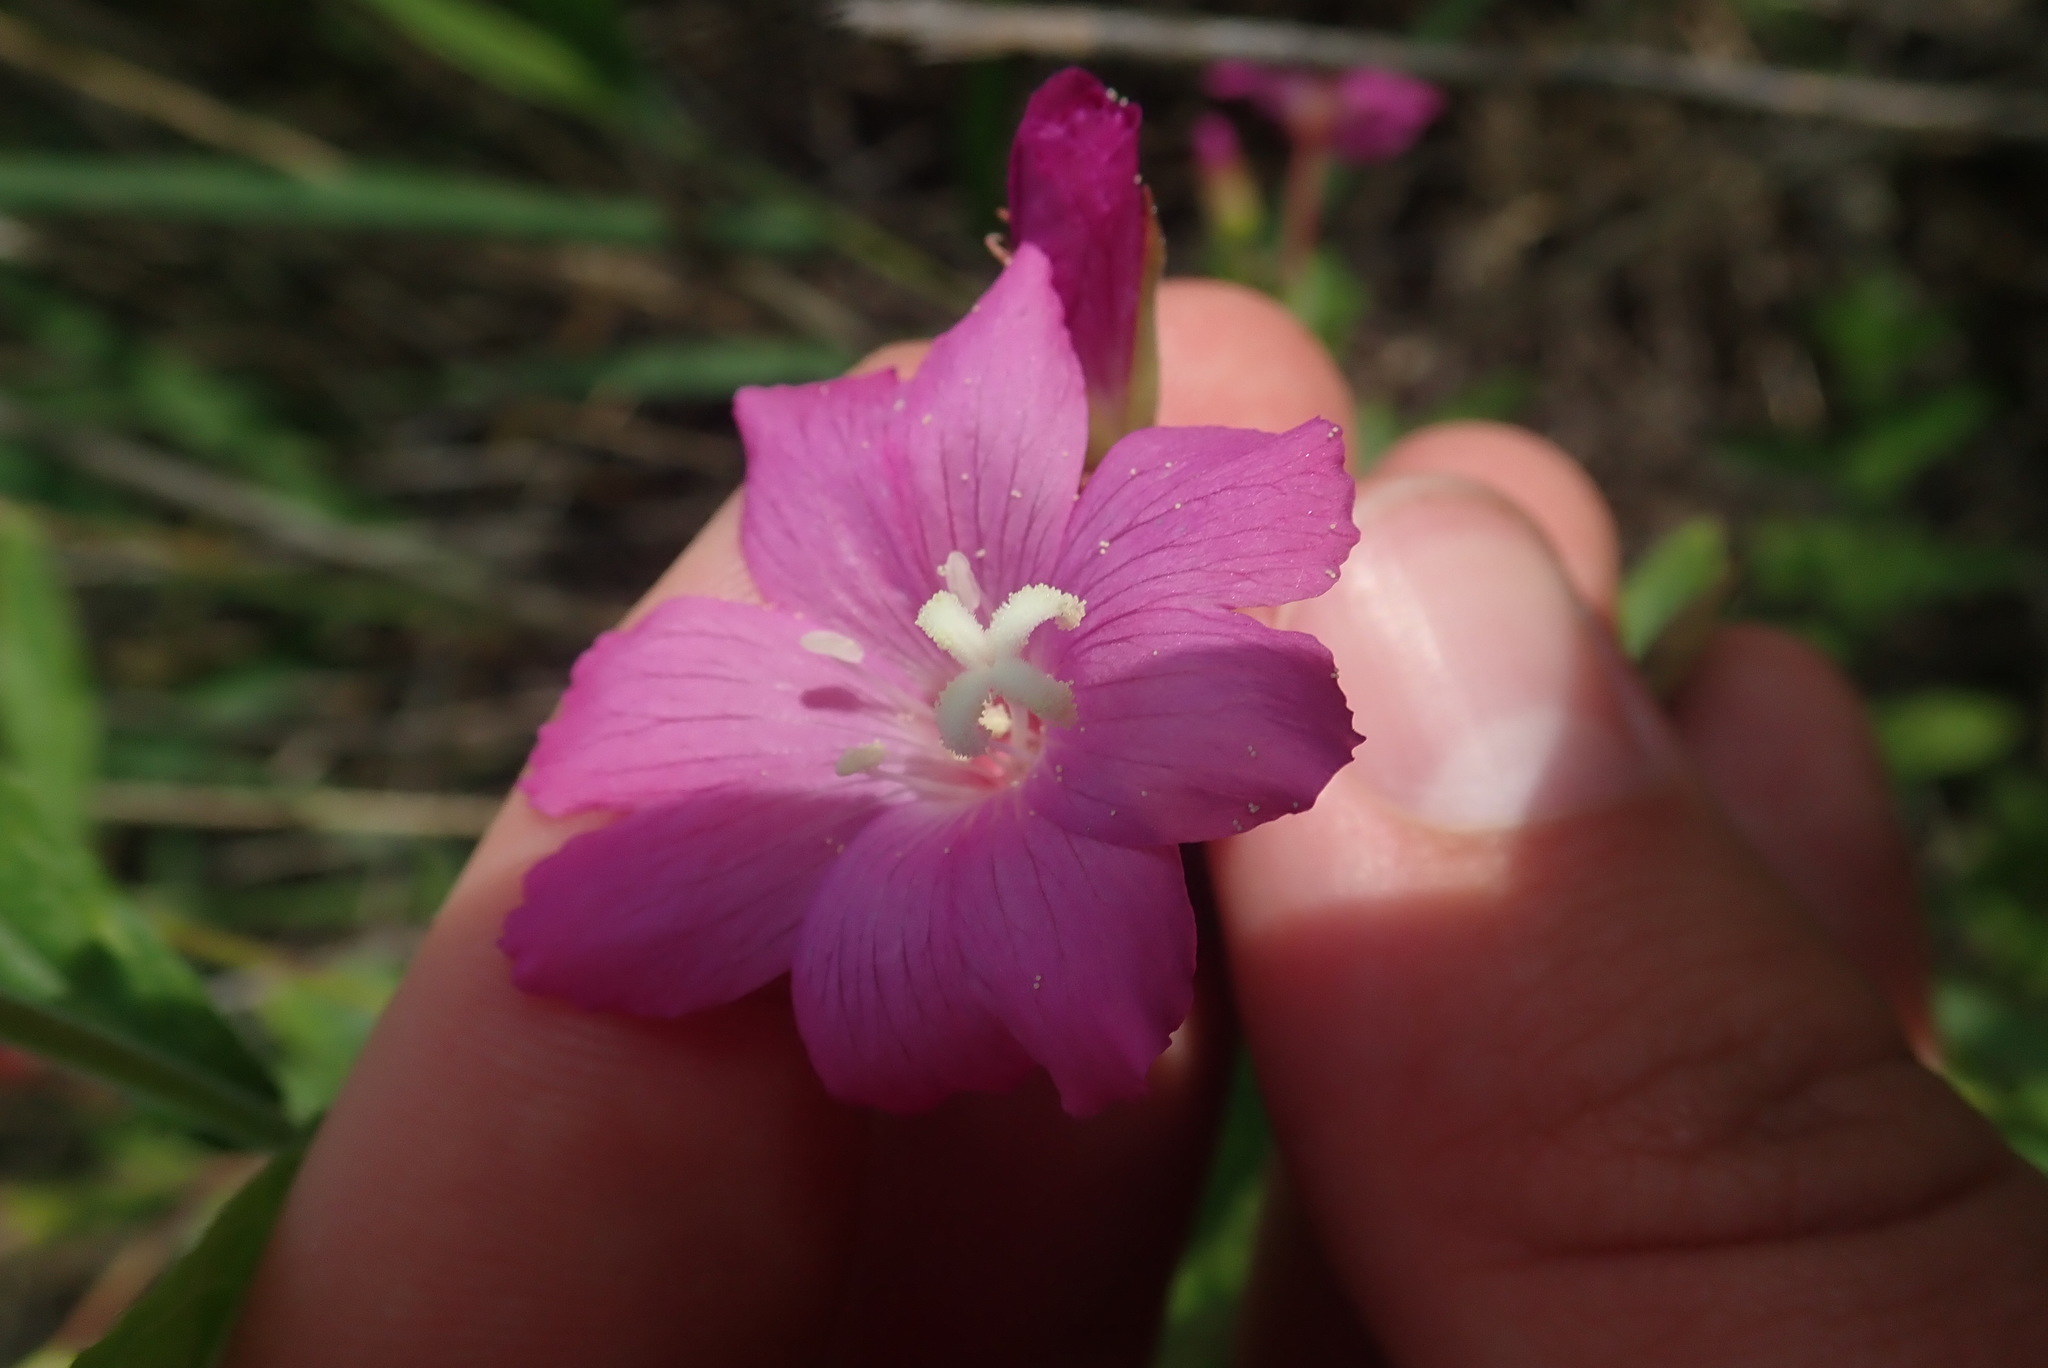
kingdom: Plantae
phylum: Tracheophyta
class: Magnoliopsida
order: Myrtales
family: Onagraceae
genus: Epilobium
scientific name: Epilobium hirsutum
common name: Great willowherb
